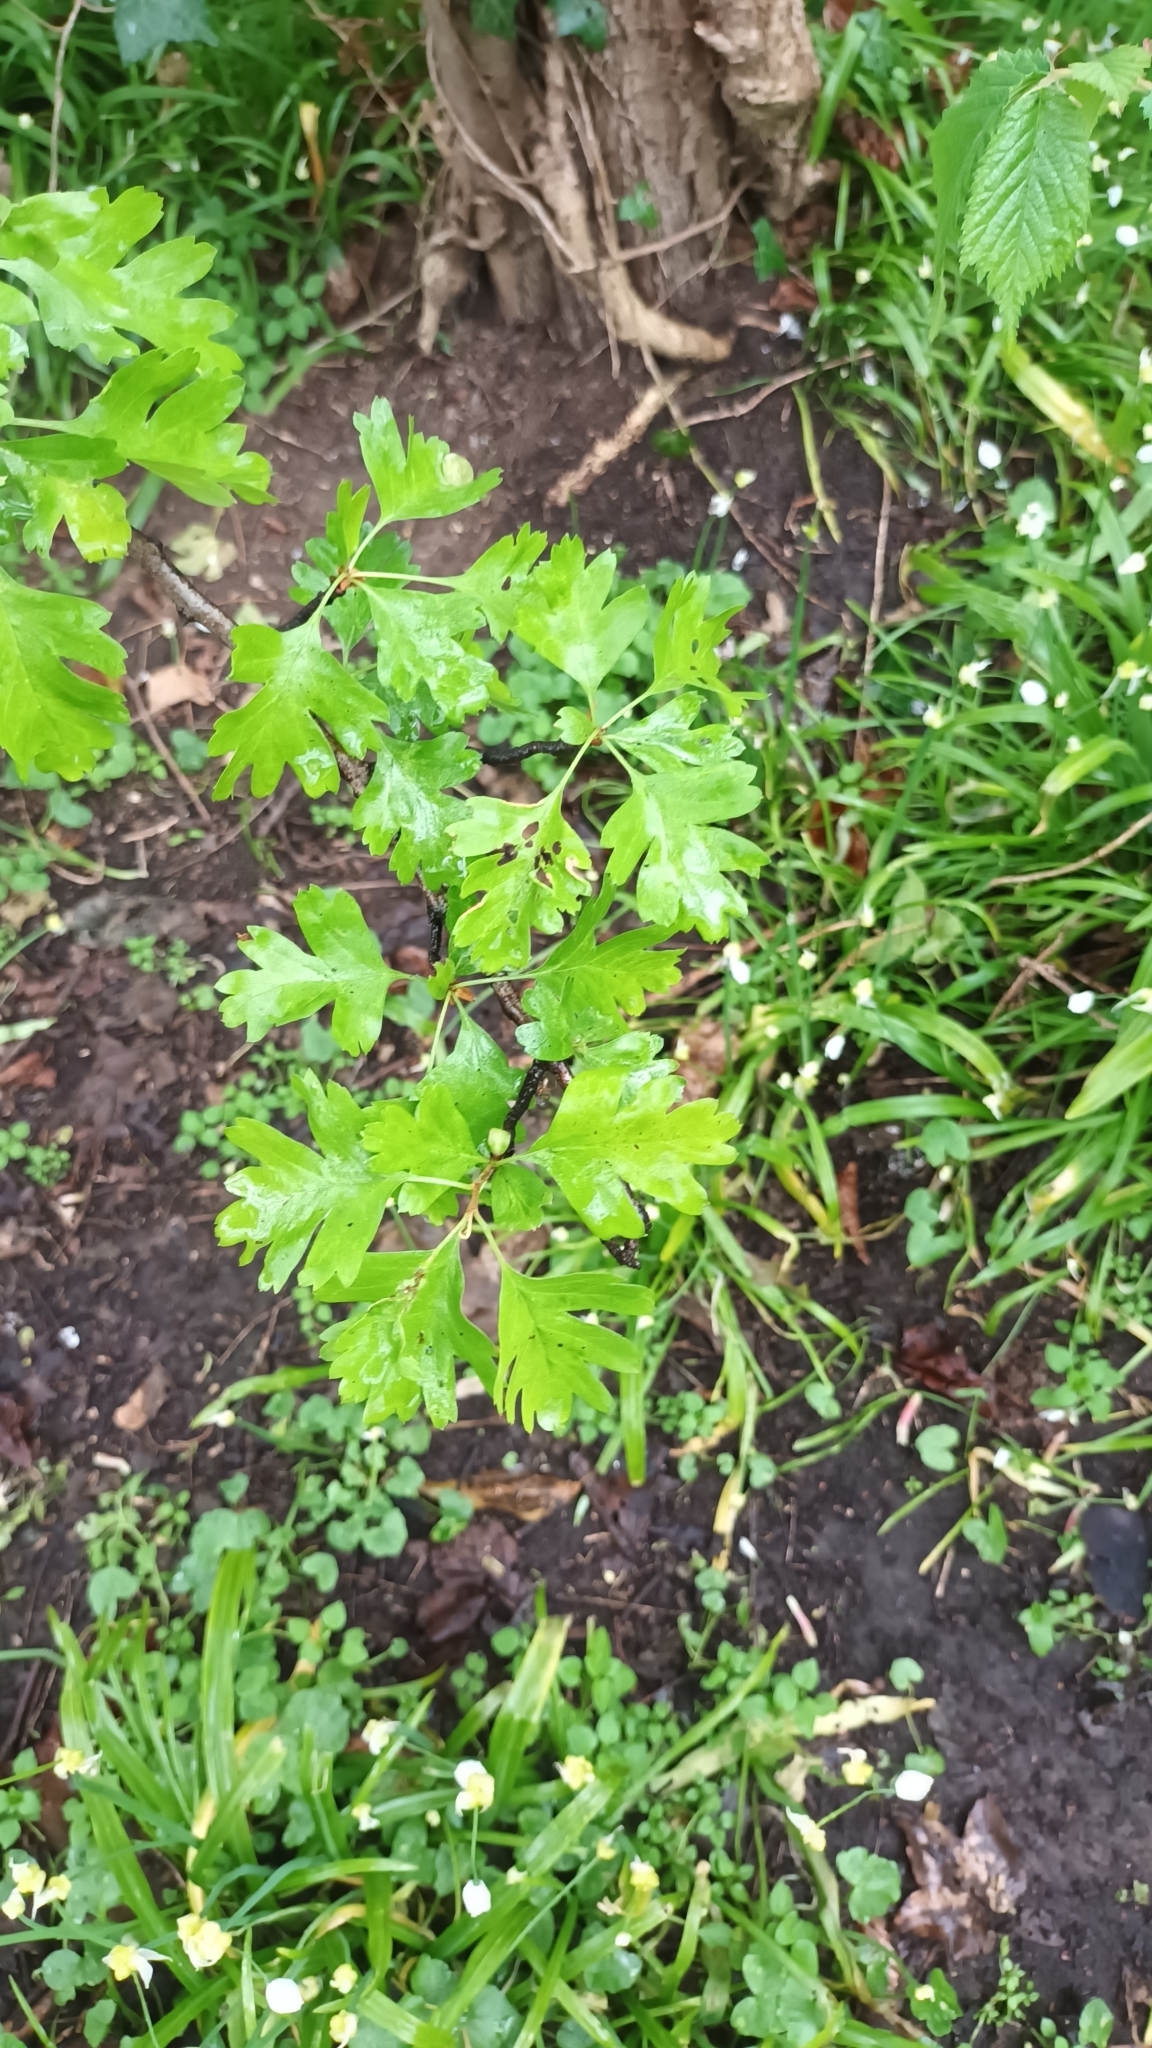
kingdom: Plantae
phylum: Tracheophyta
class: Magnoliopsida
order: Rosales
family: Rosaceae
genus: Crataegus
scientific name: Crataegus monogyna
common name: Hawthorn
